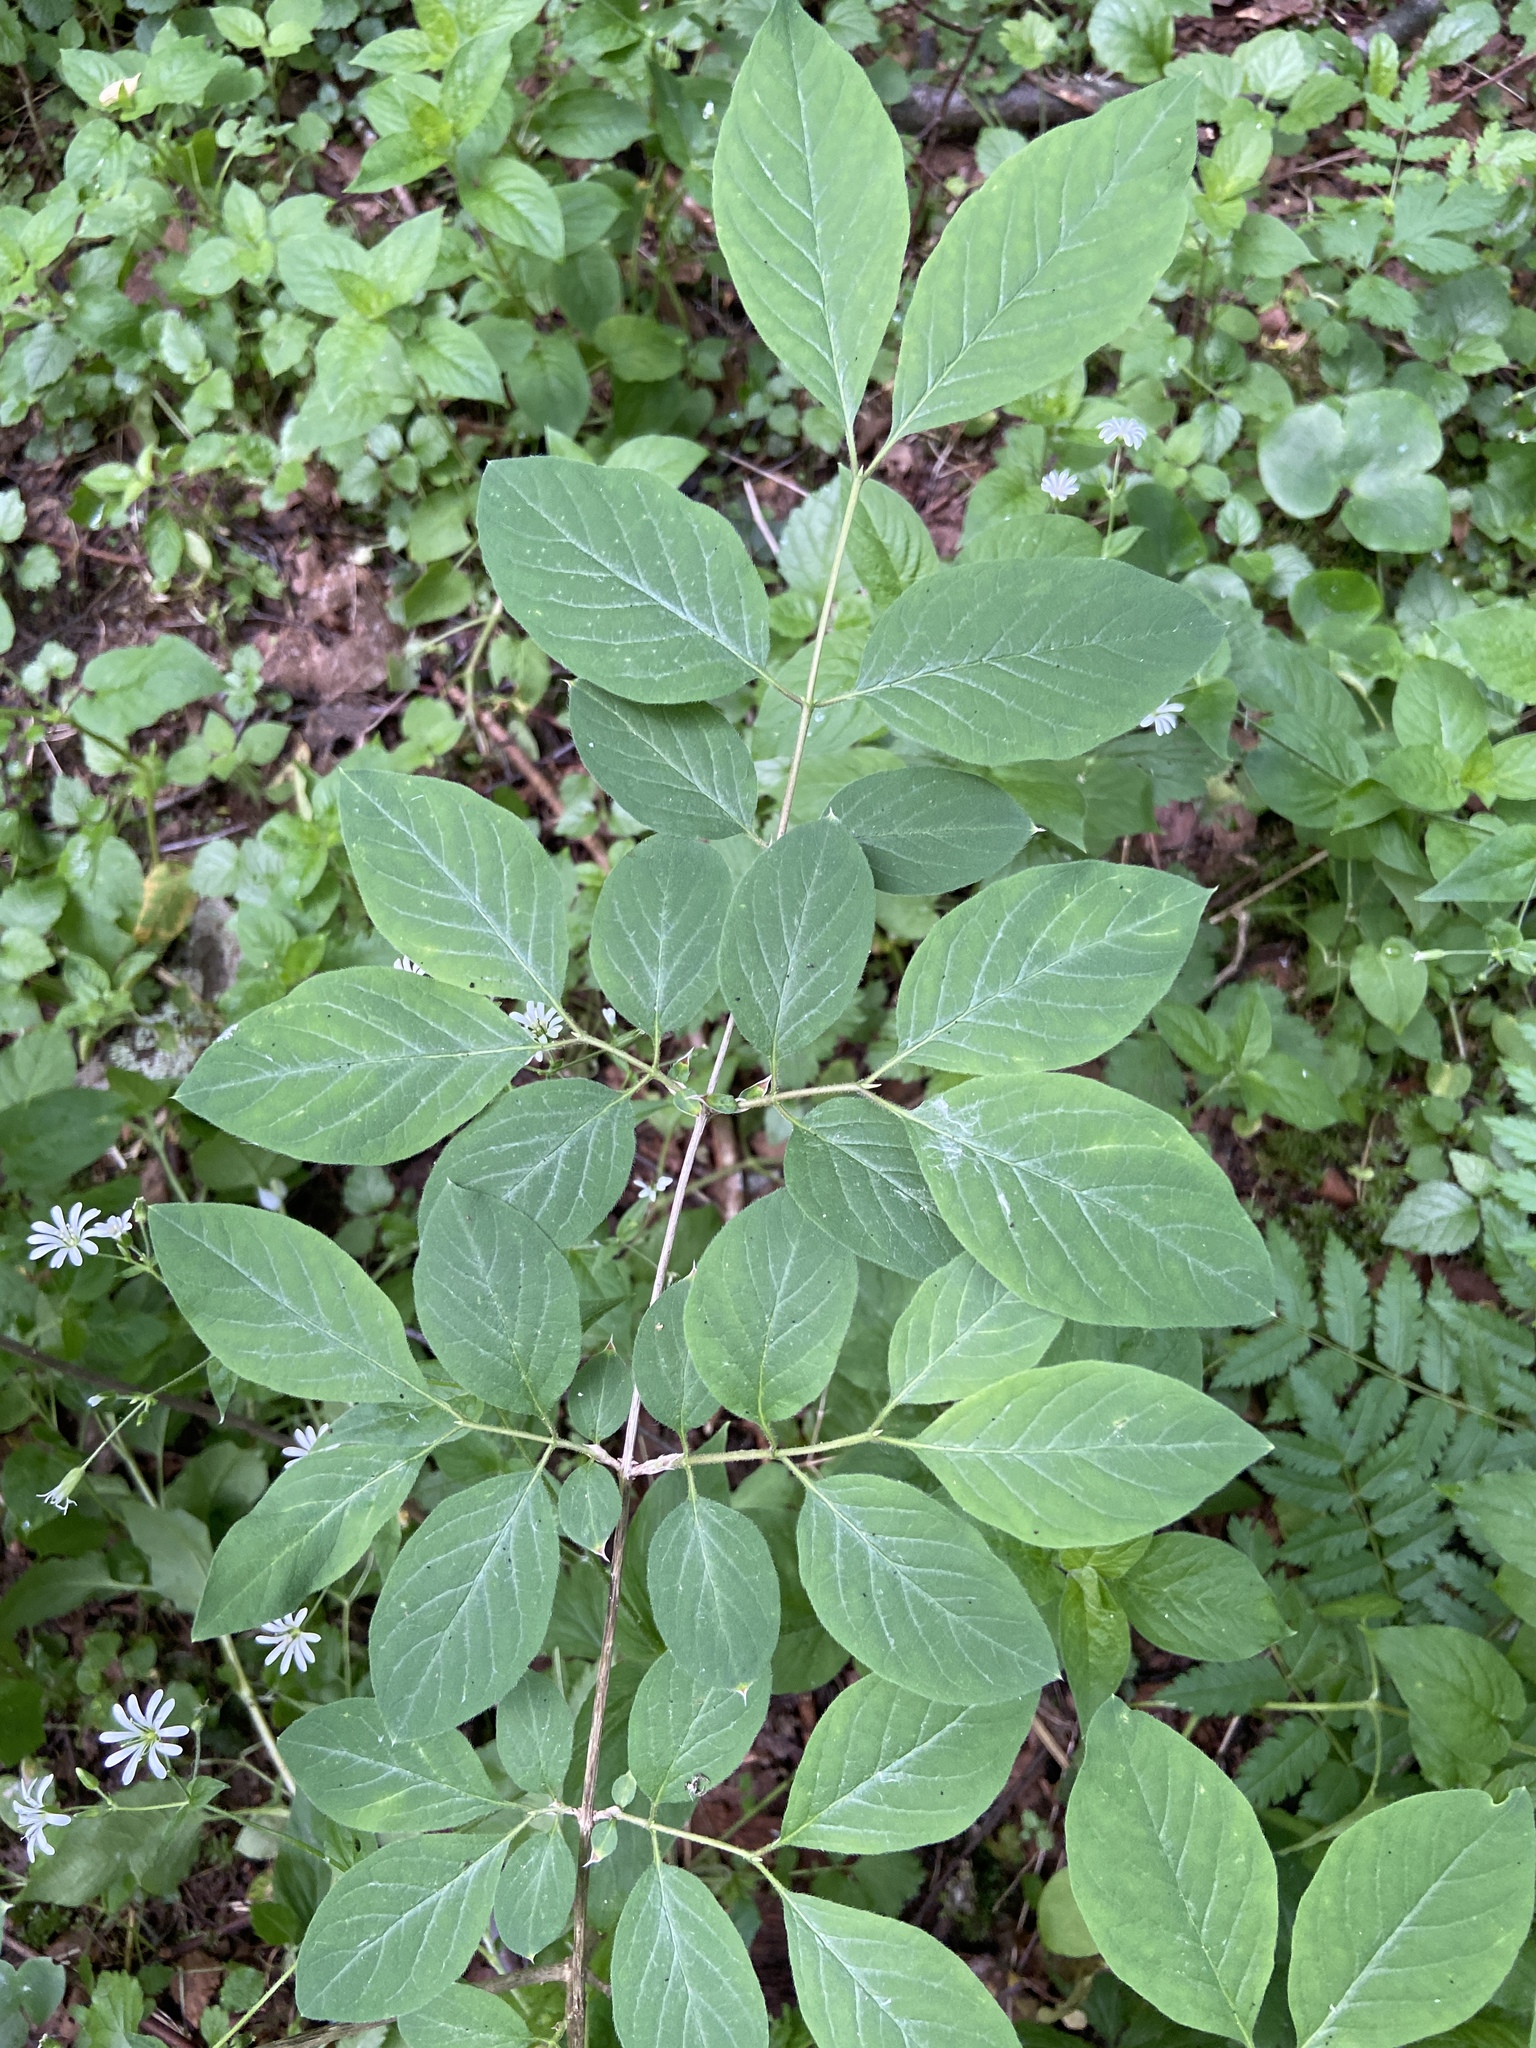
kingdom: Plantae
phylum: Tracheophyta
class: Magnoliopsida
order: Dipsacales
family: Caprifoliaceae
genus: Lonicera
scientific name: Lonicera xylosteum
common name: Fly honeysuckle
